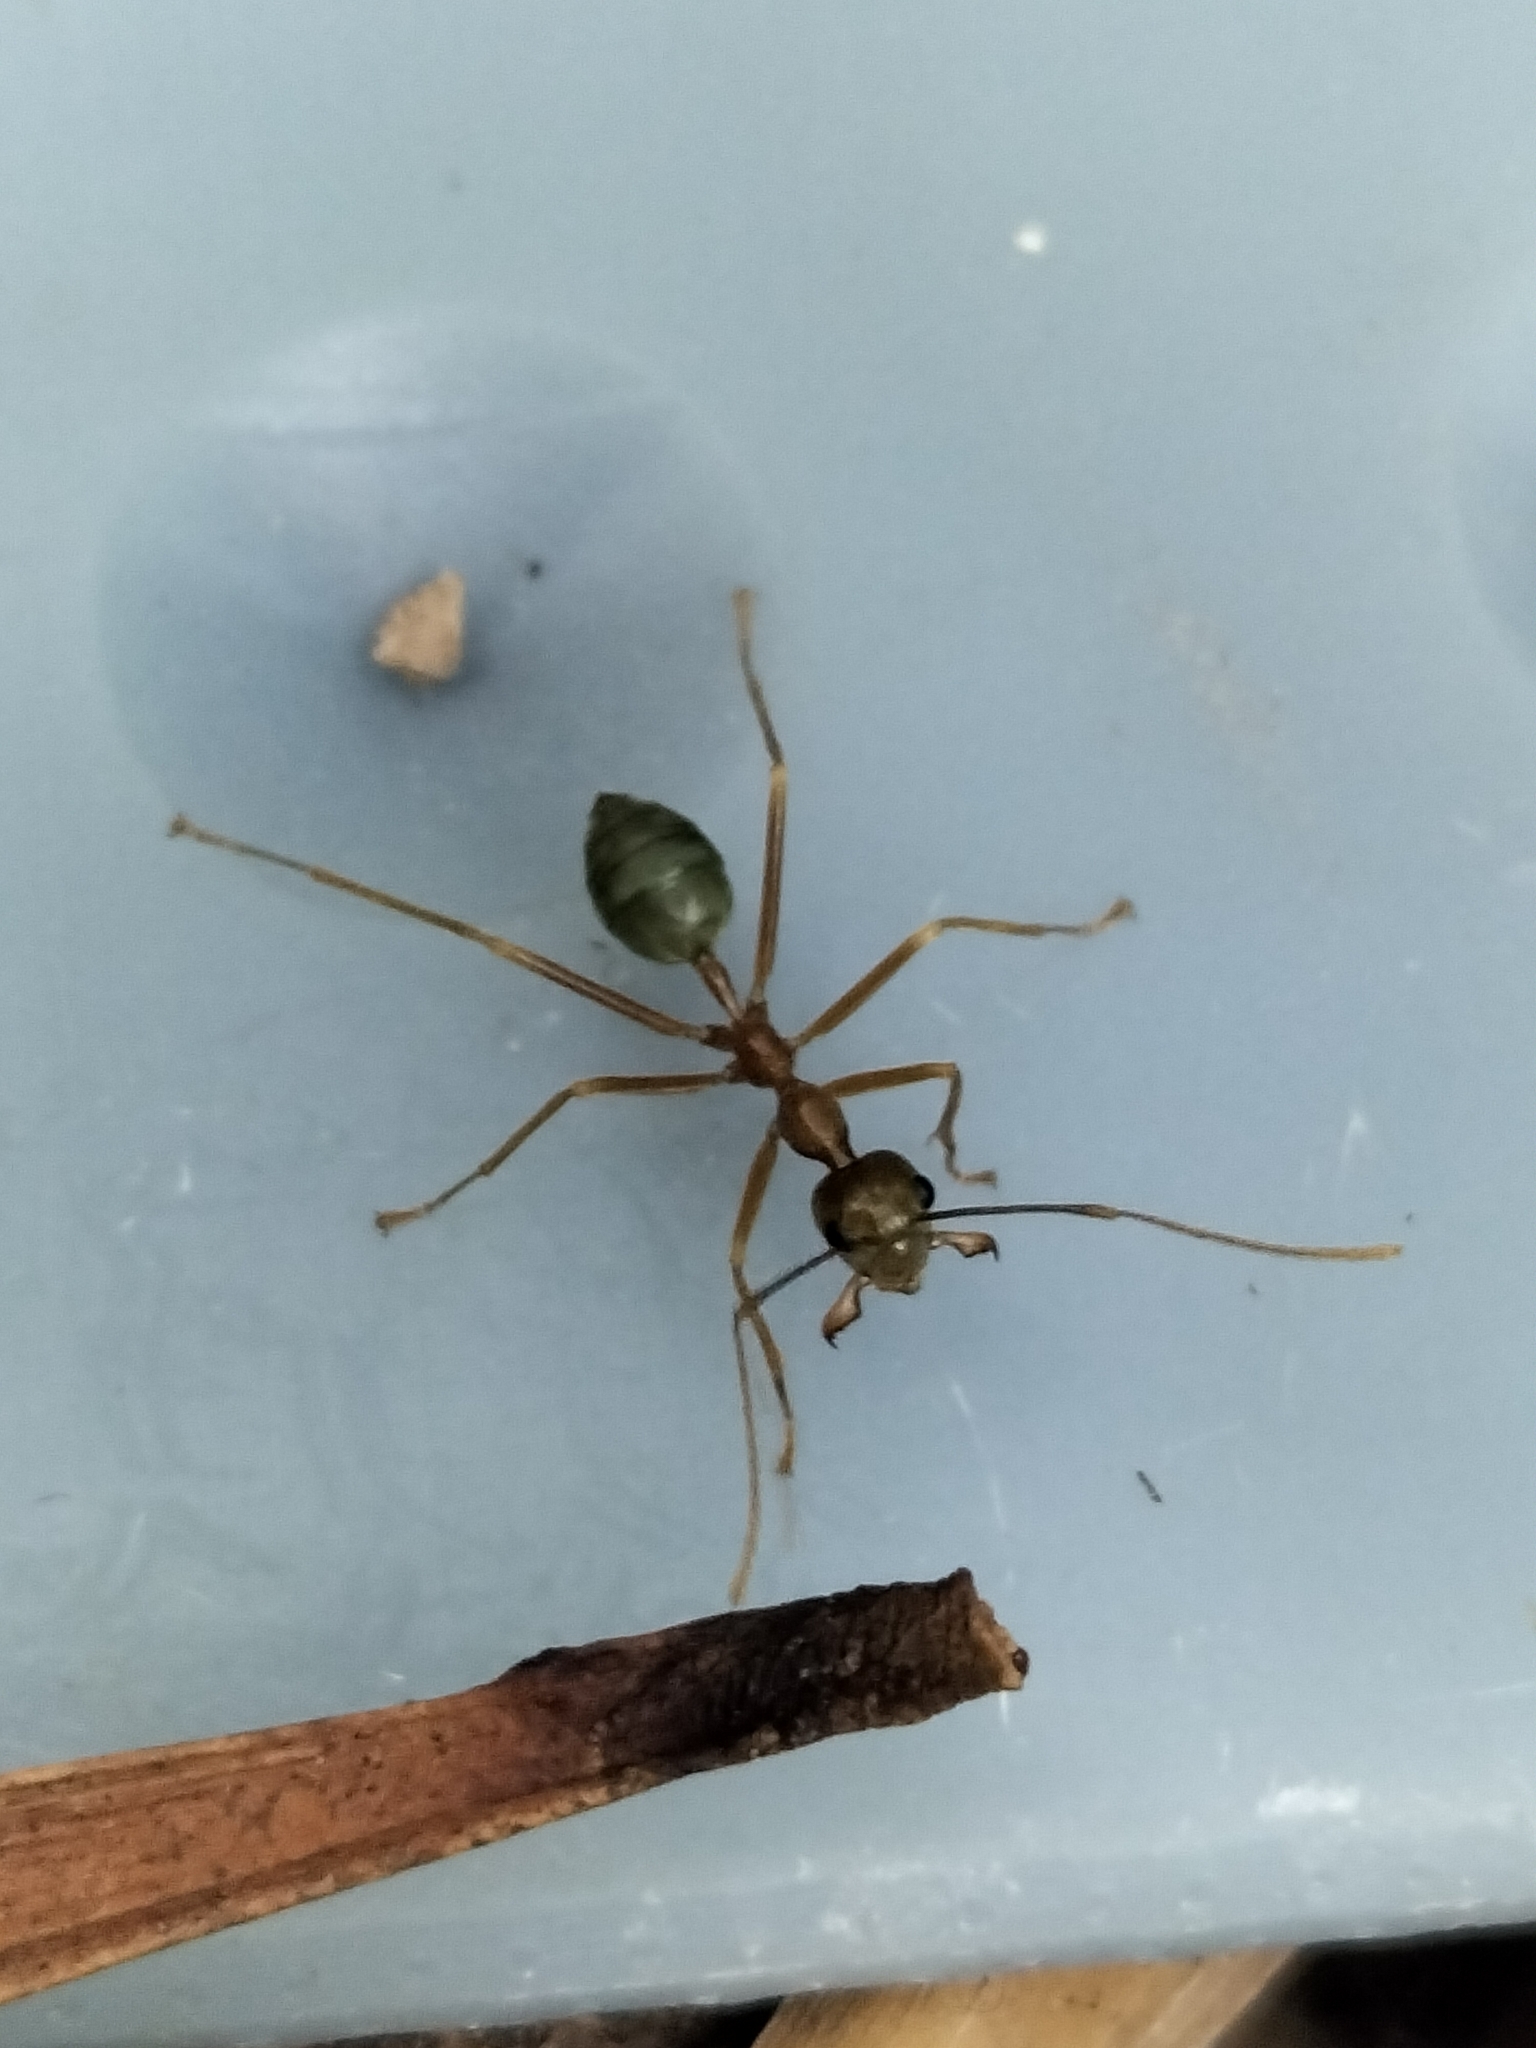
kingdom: Animalia
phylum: Arthropoda
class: Insecta
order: Hymenoptera
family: Formicidae
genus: Oecophylla
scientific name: Oecophylla smaragdina
